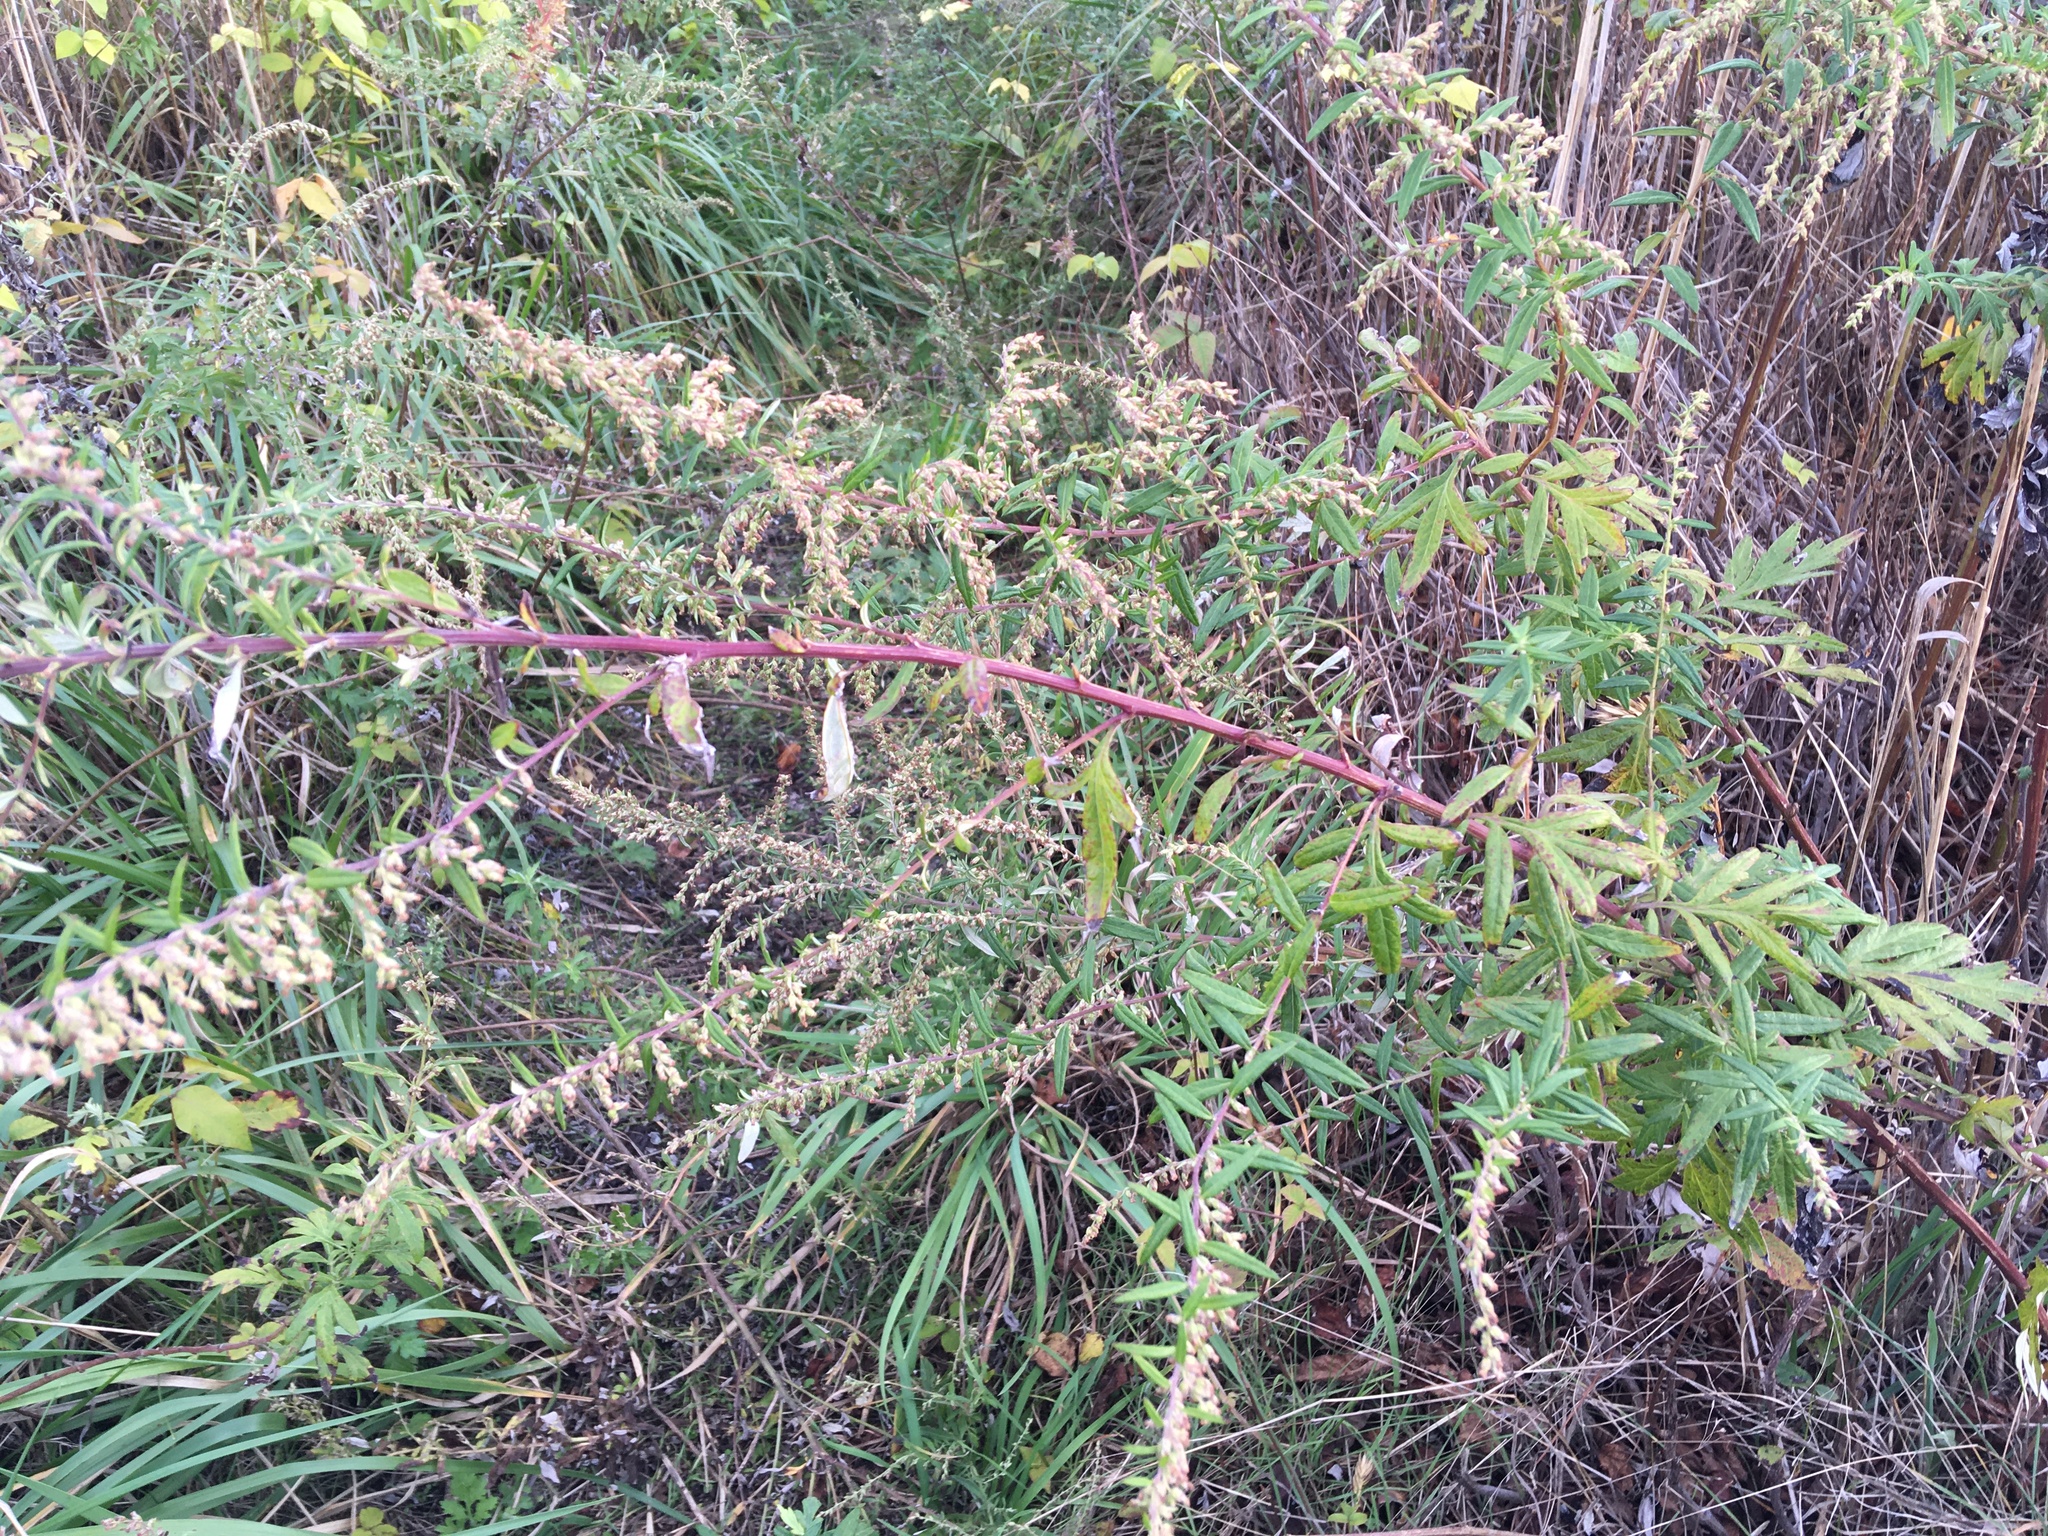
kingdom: Plantae
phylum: Tracheophyta
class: Magnoliopsida
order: Asterales
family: Asteraceae
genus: Artemisia
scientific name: Artemisia vulgaris
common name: Mugwort
